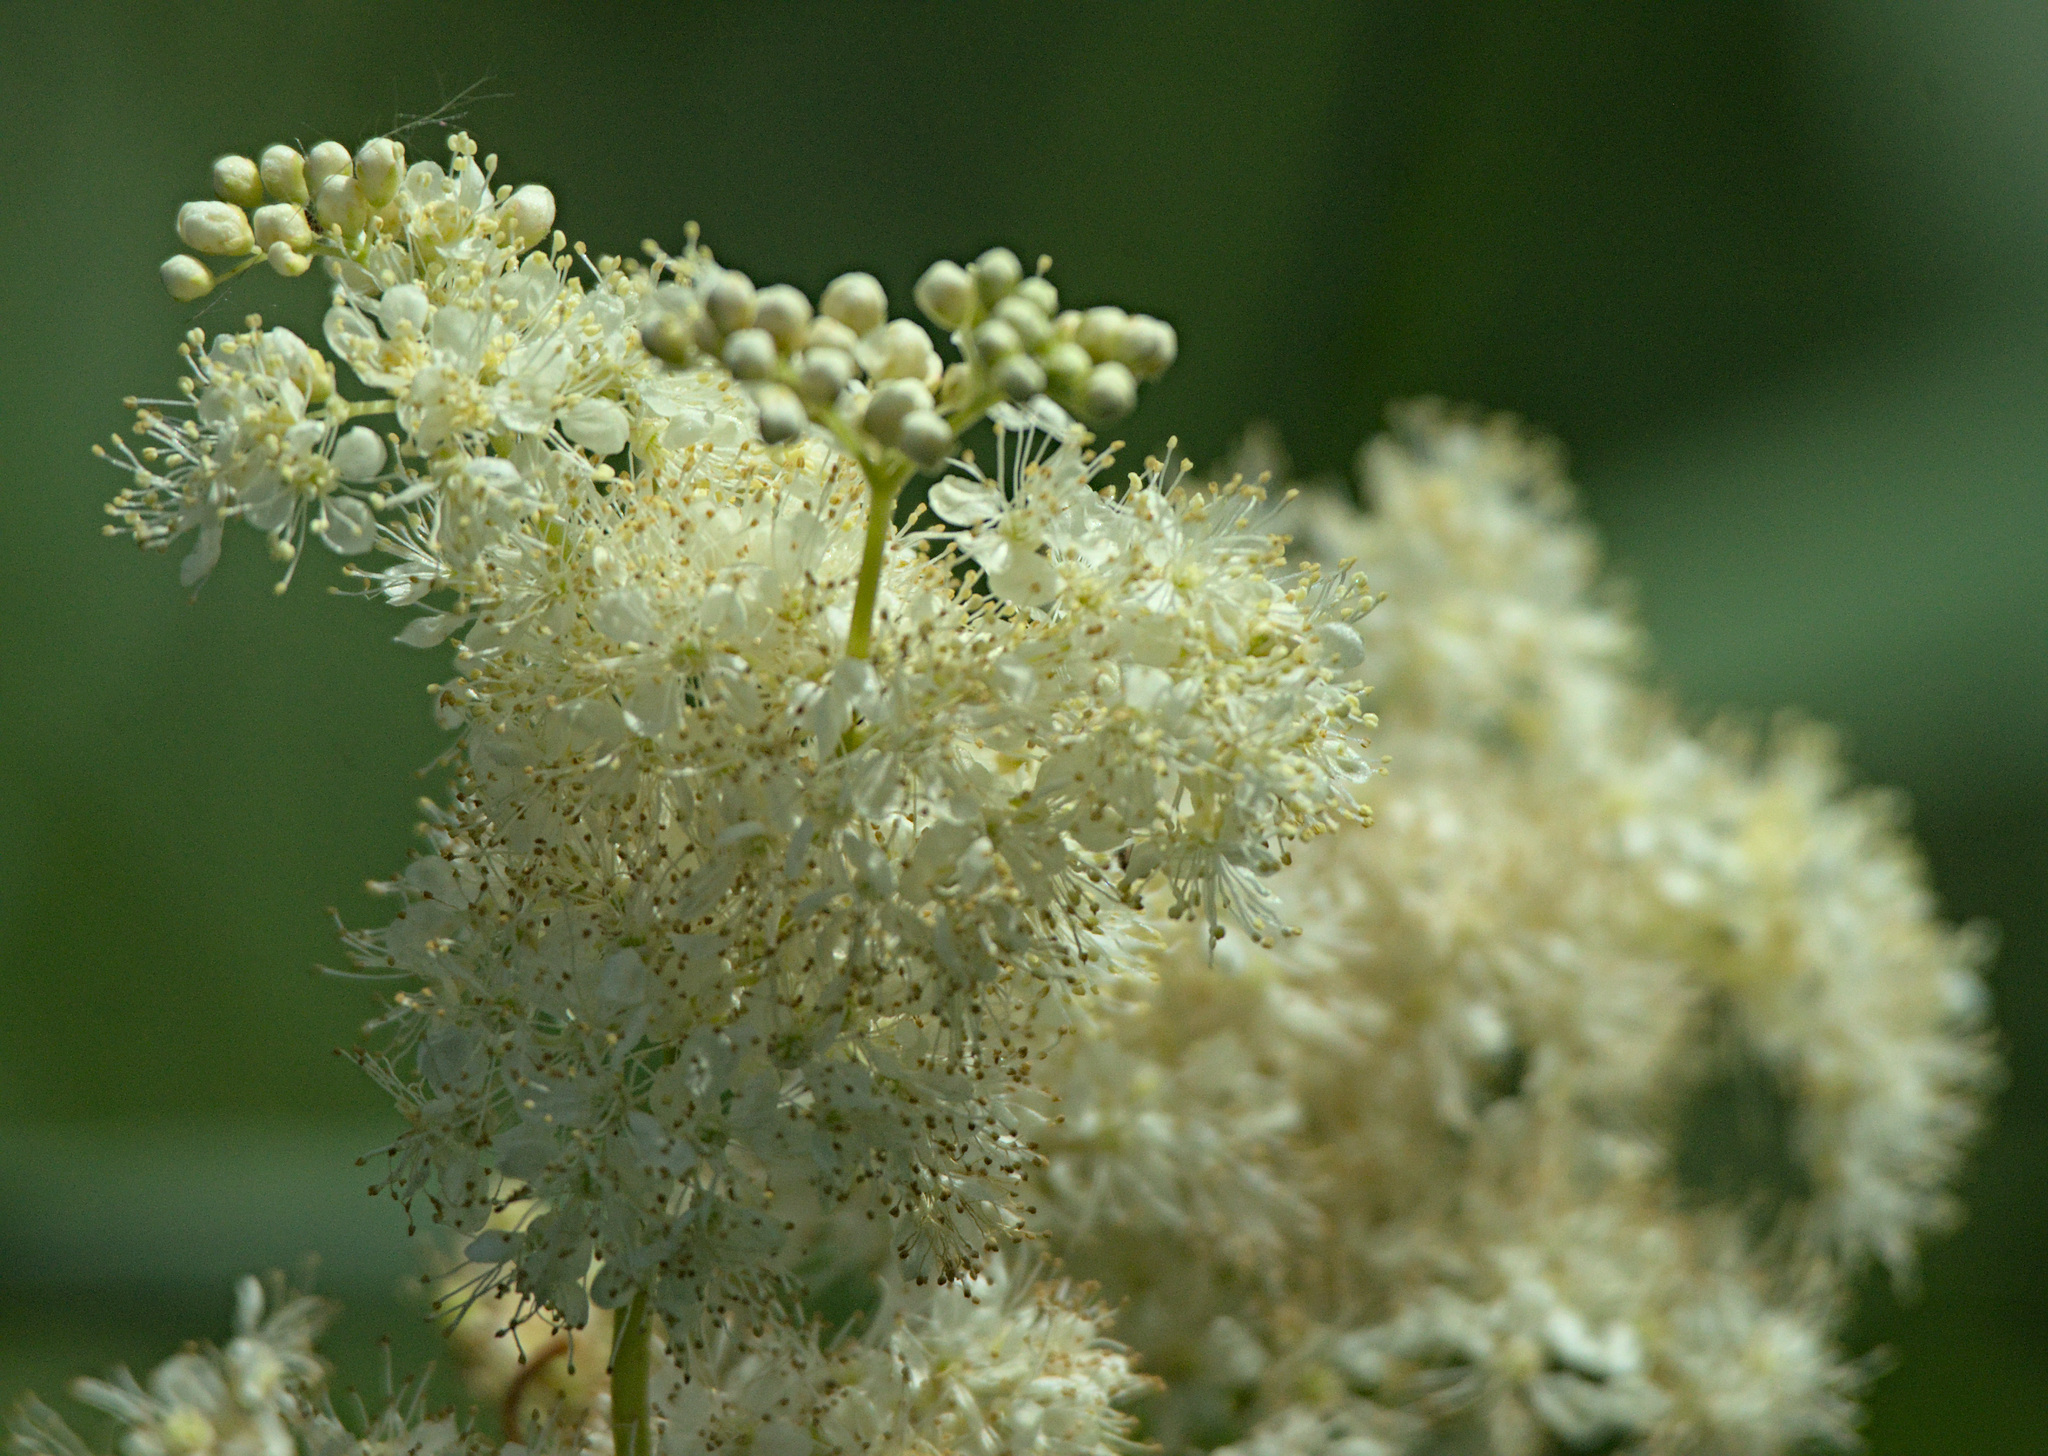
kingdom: Plantae
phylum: Tracheophyta
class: Magnoliopsida
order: Rosales
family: Rosaceae
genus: Filipendula
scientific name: Filipendula ulmaria
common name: Meadowsweet
